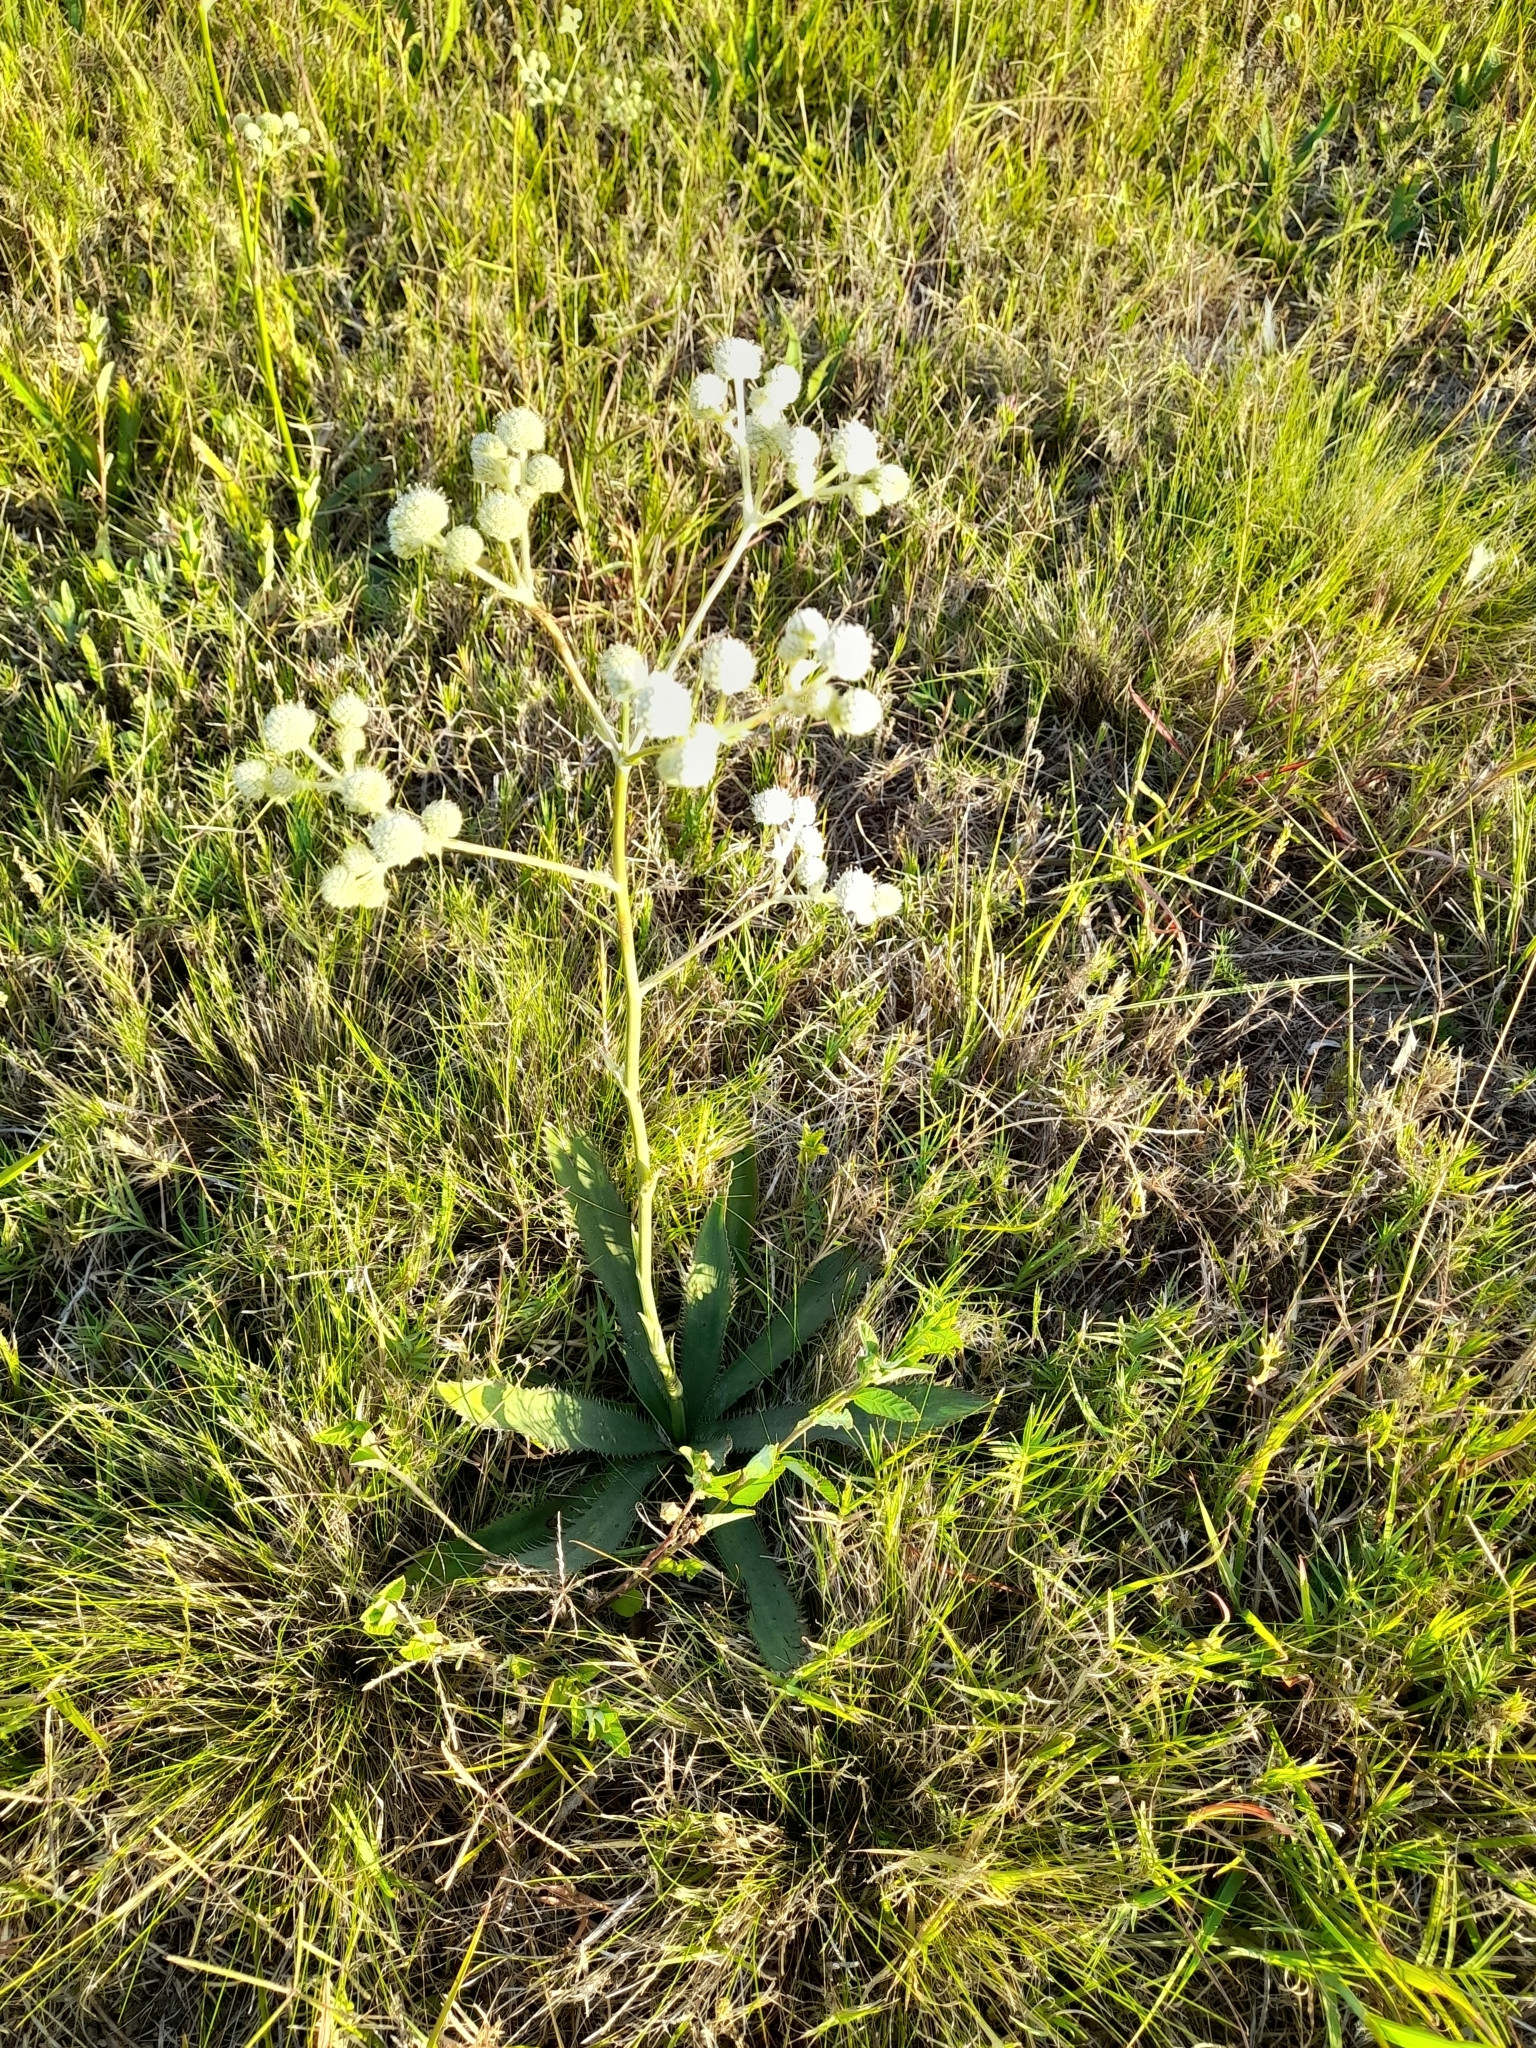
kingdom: Plantae
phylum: Tracheophyta
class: Magnoliopsida
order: Apiales
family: Apiaceae
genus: Eryngium
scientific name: Eryngium elegans
